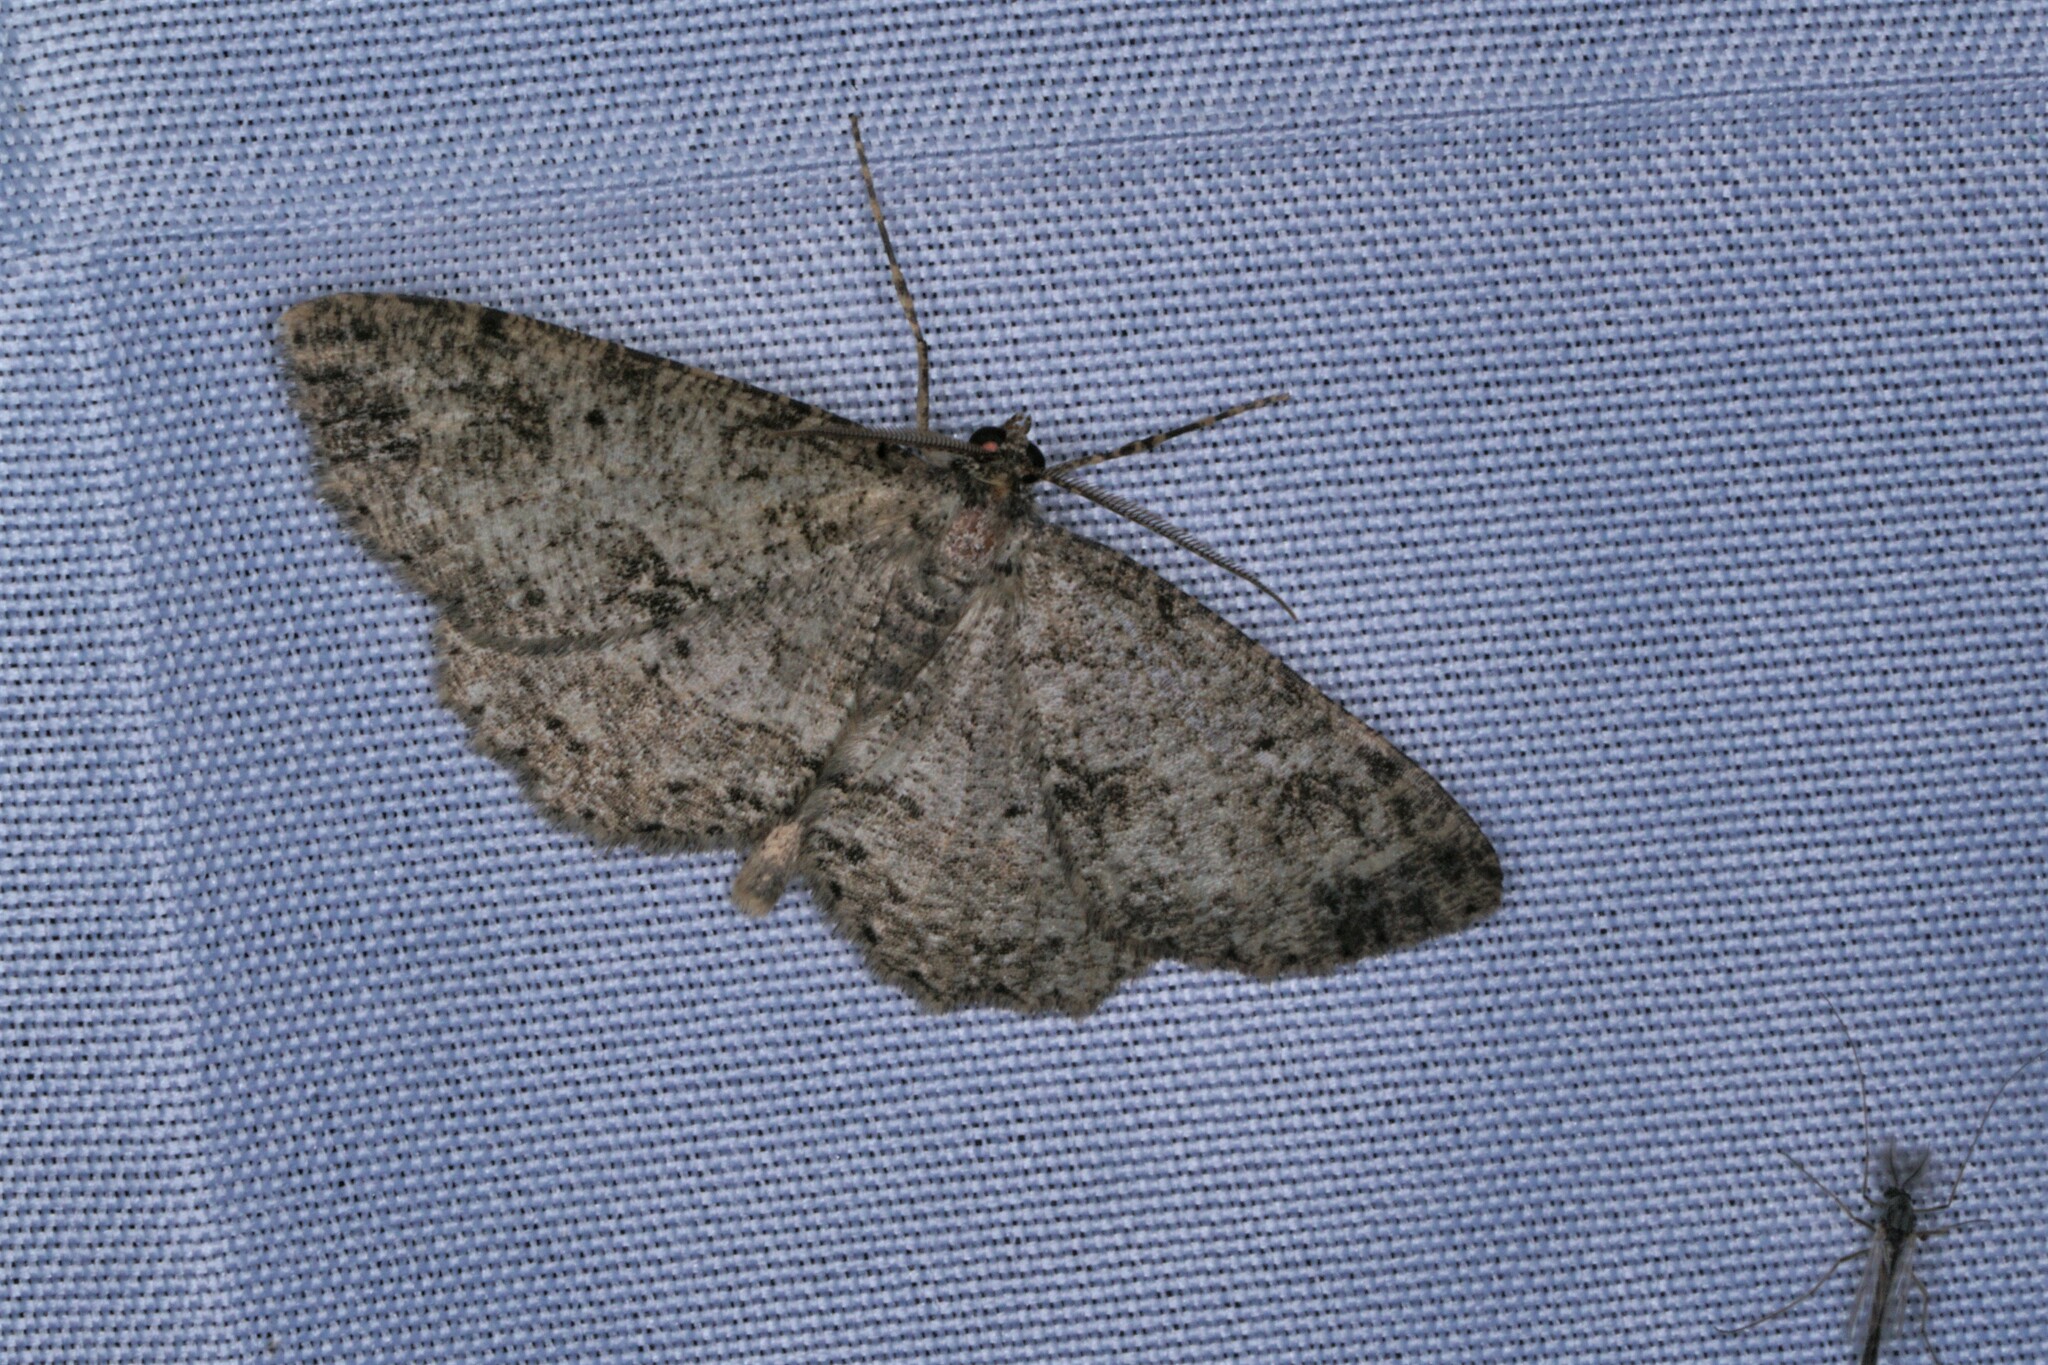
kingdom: Animalia
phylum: Arthropoda
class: Insecta
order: Lepidoptera
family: Geometridae
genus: Melanolophia
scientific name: Melanolophia canadaria
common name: Canadian melanolophia
